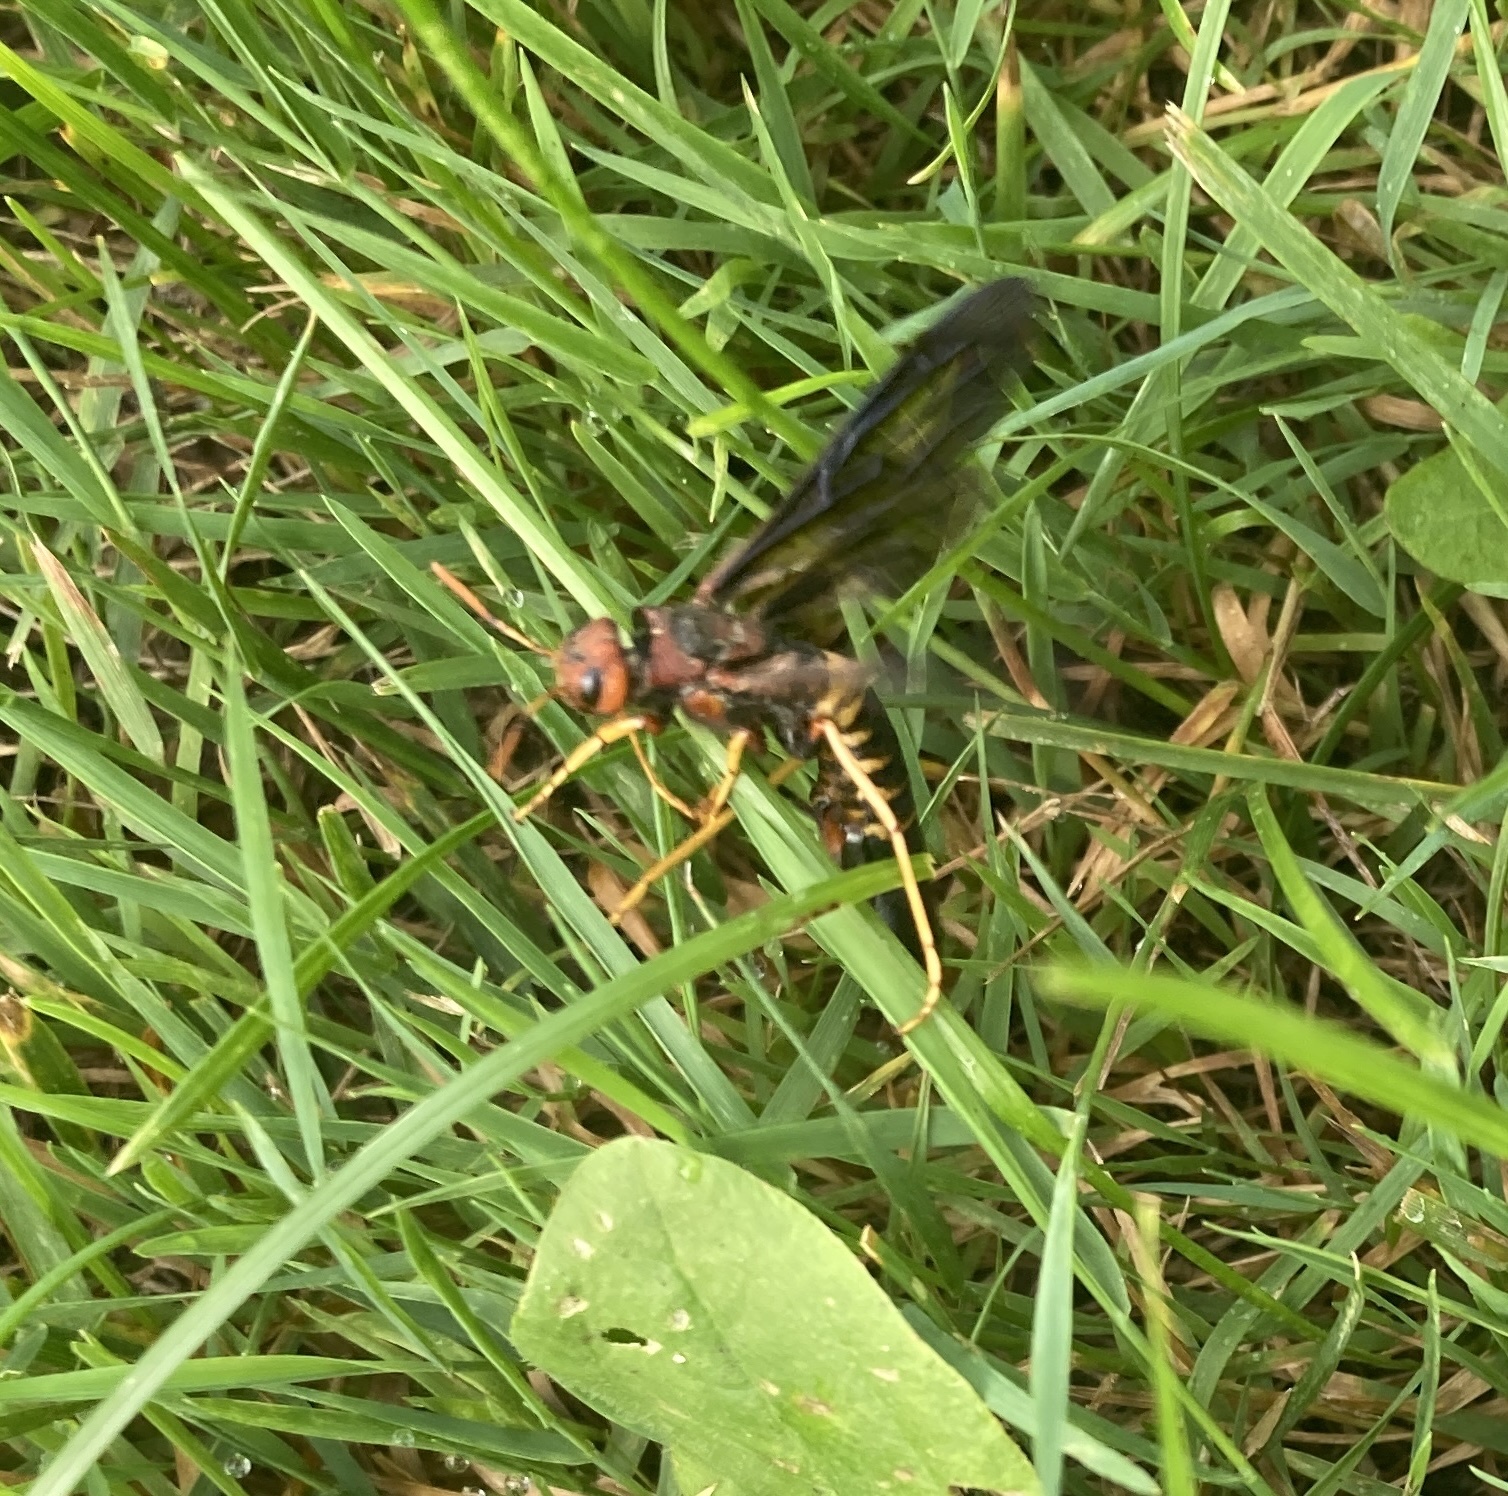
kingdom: Animalia
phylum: Arthropoda
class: Insecta
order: Hymenoptera
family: Siricidae
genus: Tremex
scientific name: Tremex columba
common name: Wasp
